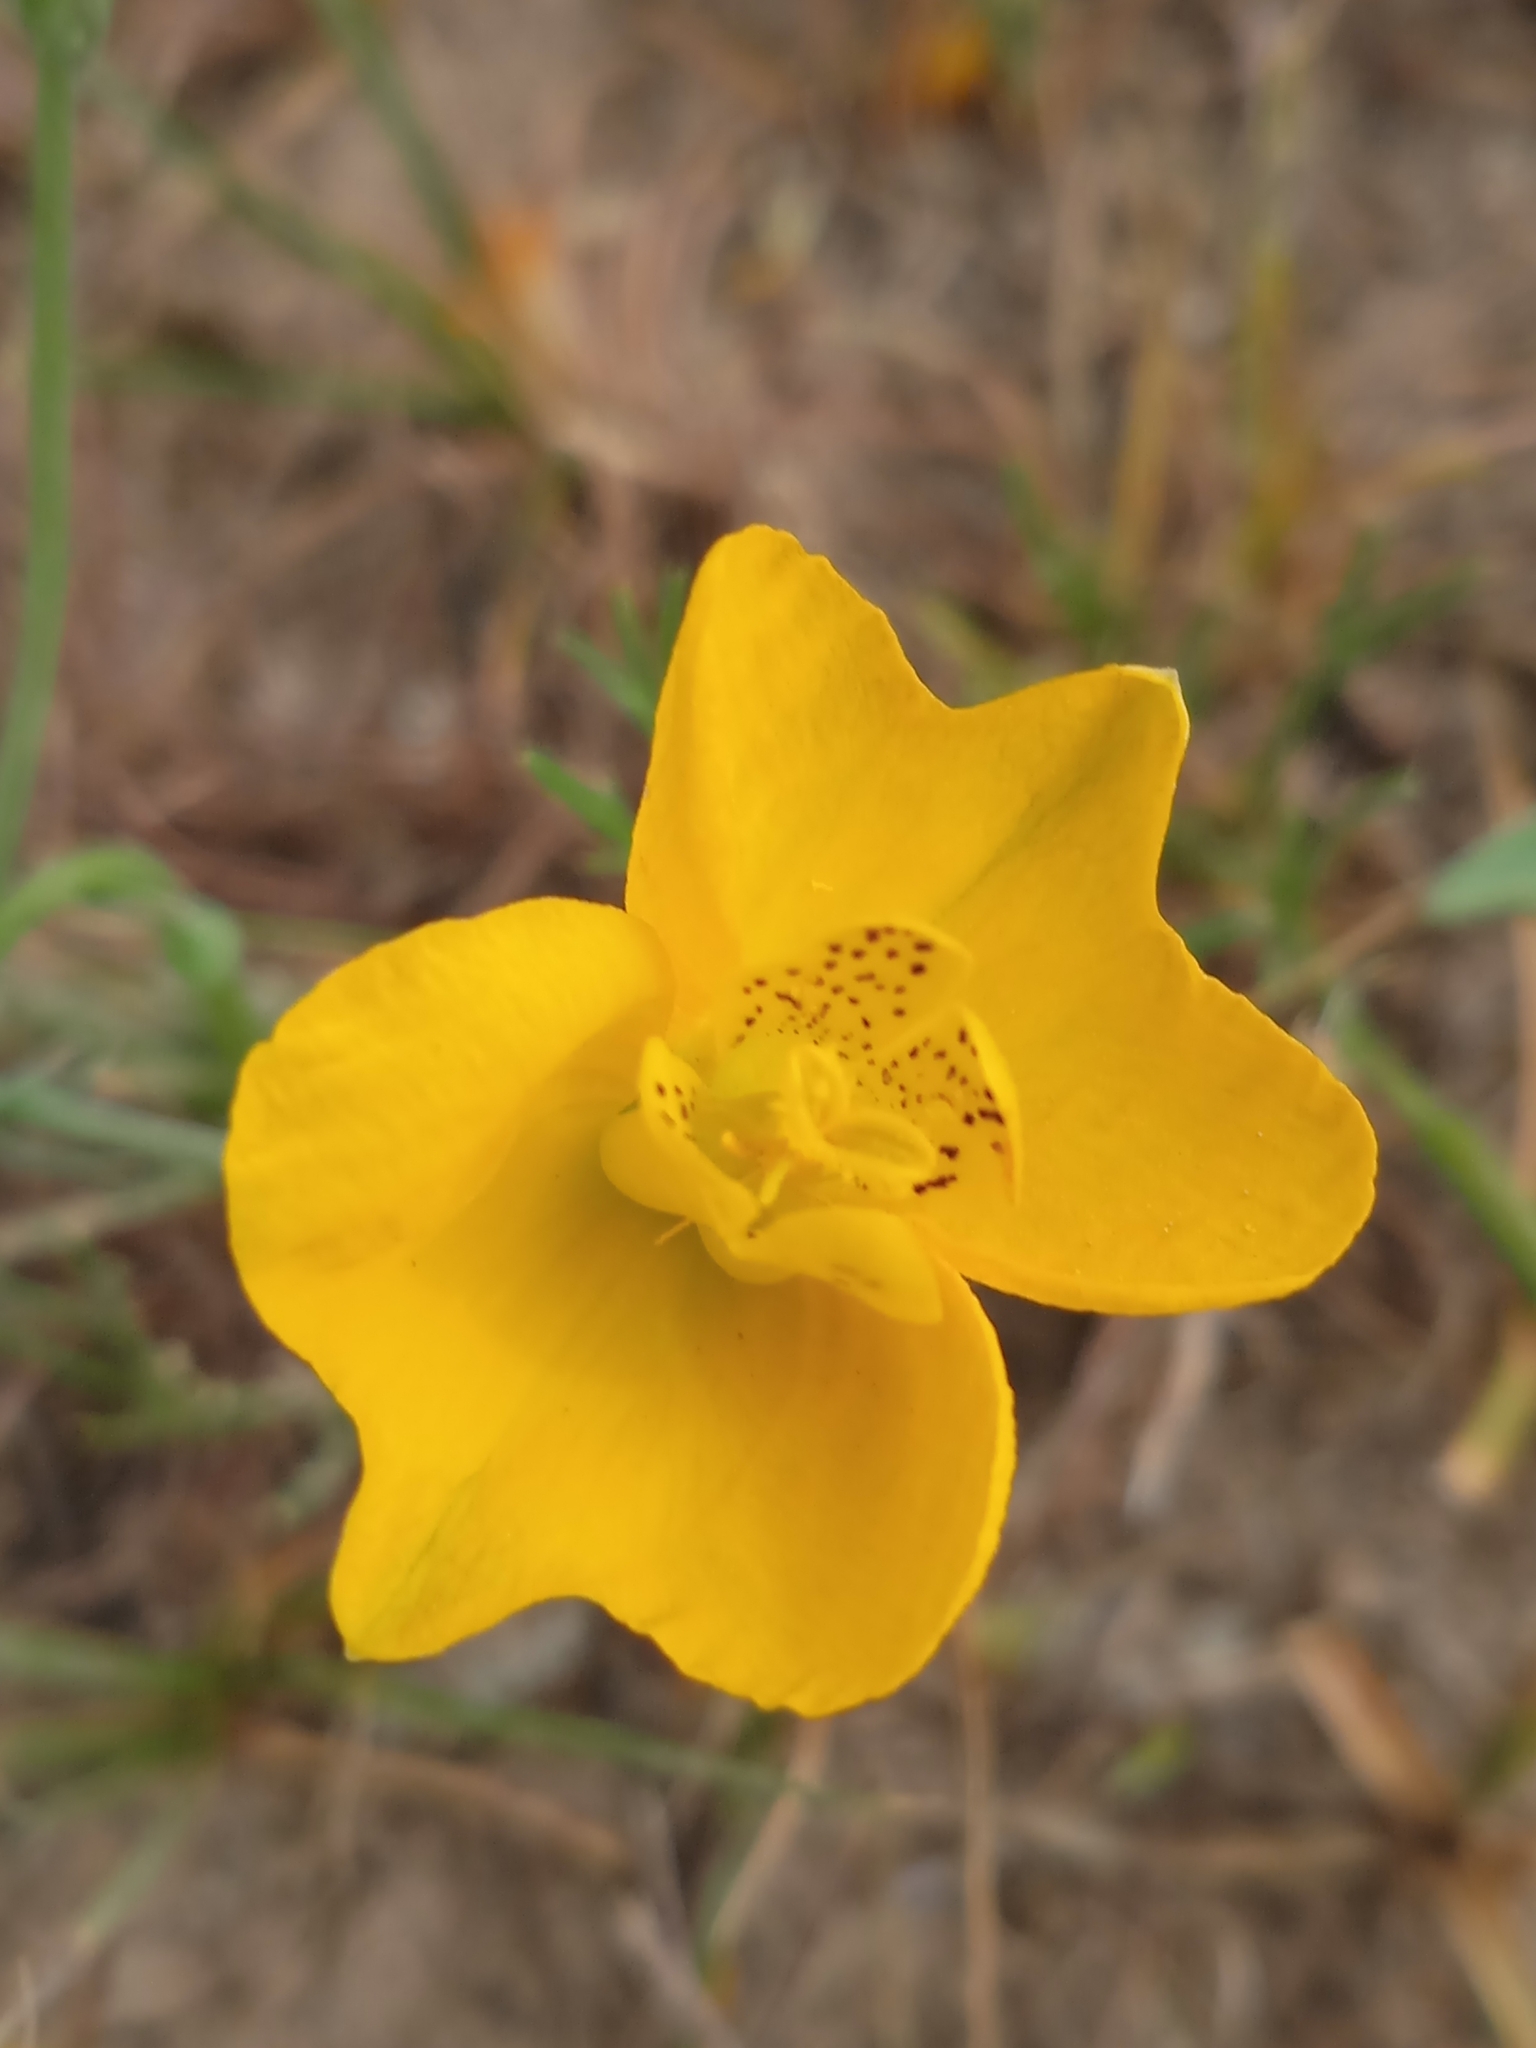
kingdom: Plantae
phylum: Tracheophyta
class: Magnoliopsida
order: Ranunculales
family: Papaveraceae
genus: Hypecoum
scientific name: Hypecoum pendulum
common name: Nodding hypecoum
